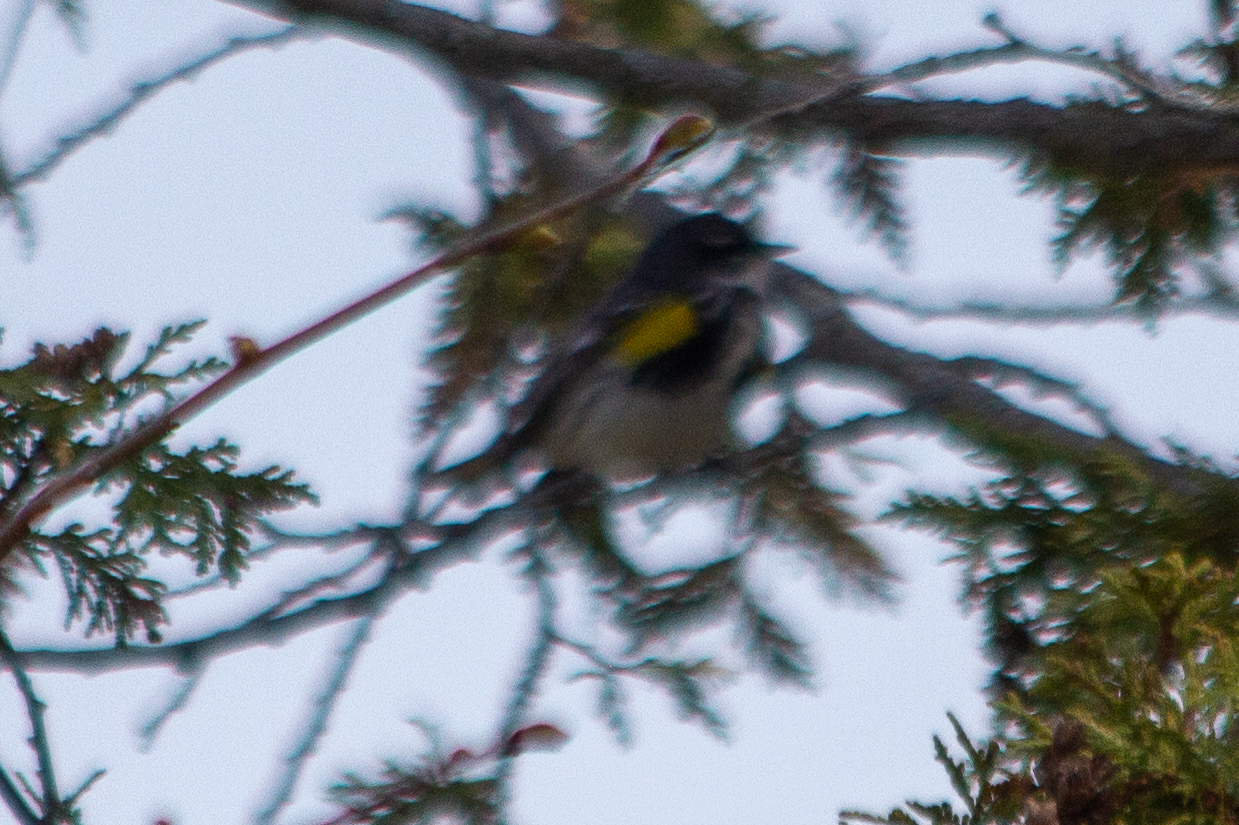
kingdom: Animalia
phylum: Chordata
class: Aves
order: Passeriformes
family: Parulidae
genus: Setophaga
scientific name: Setophaga coronata
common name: Myrtle warbler
